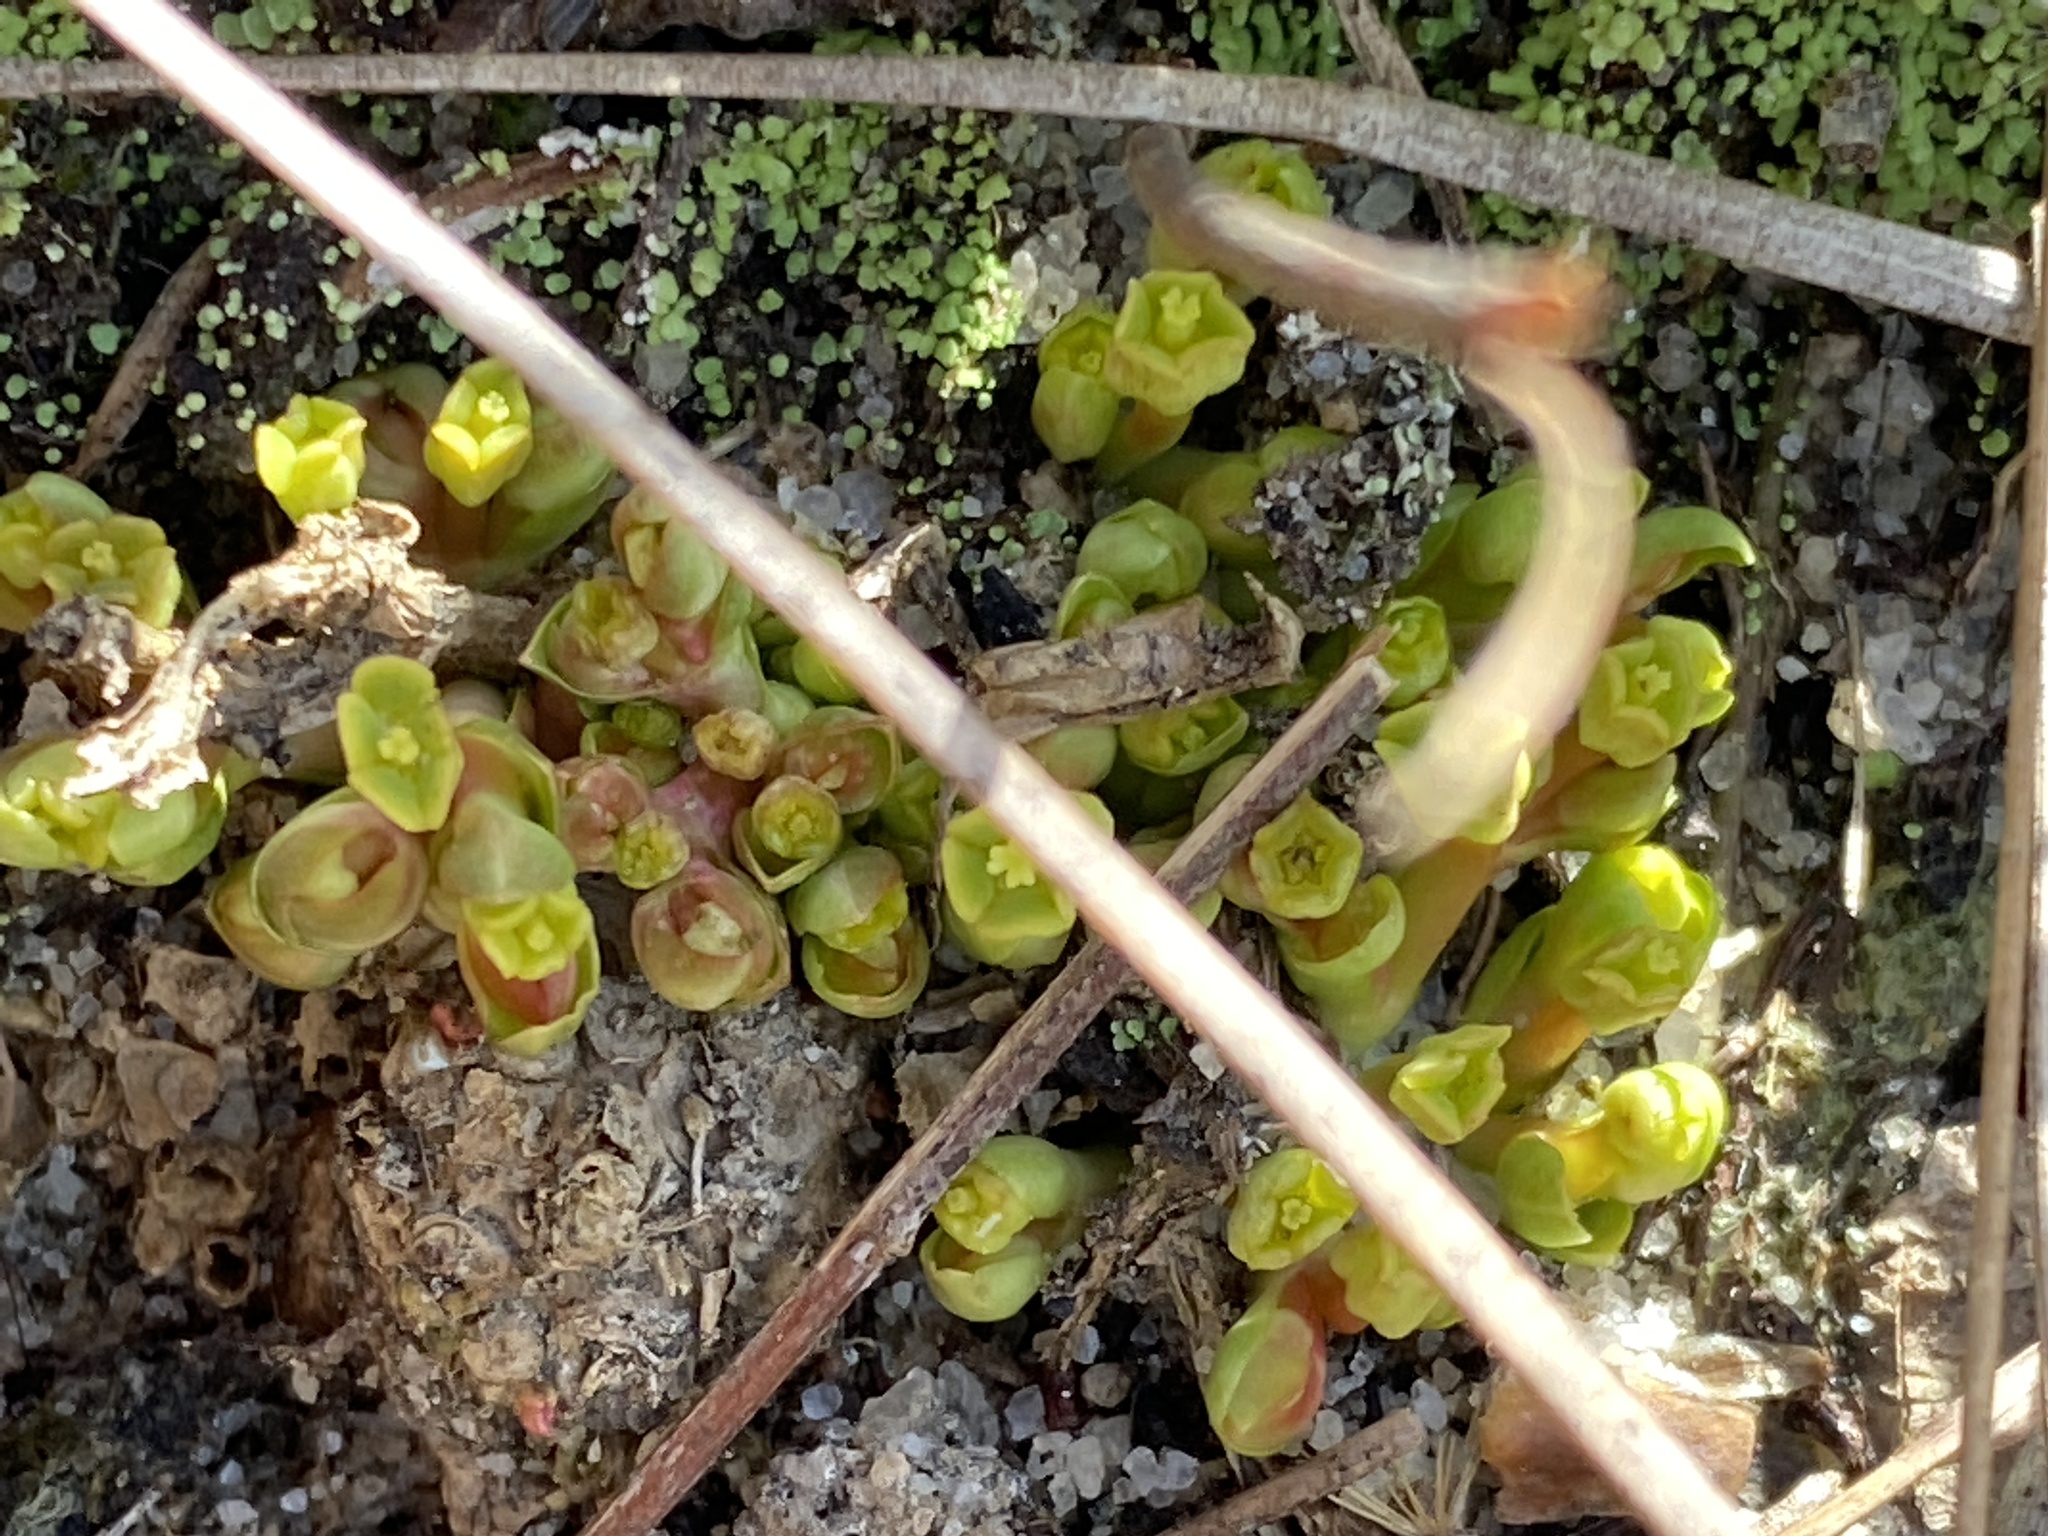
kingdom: Plantae
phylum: Tracheophyta
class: Magnoliopsida
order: Malpighiales
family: Euphorbiaceae
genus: Euphorbia
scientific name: Euphorbia ipecacuanhae
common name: Carolina ipecac
